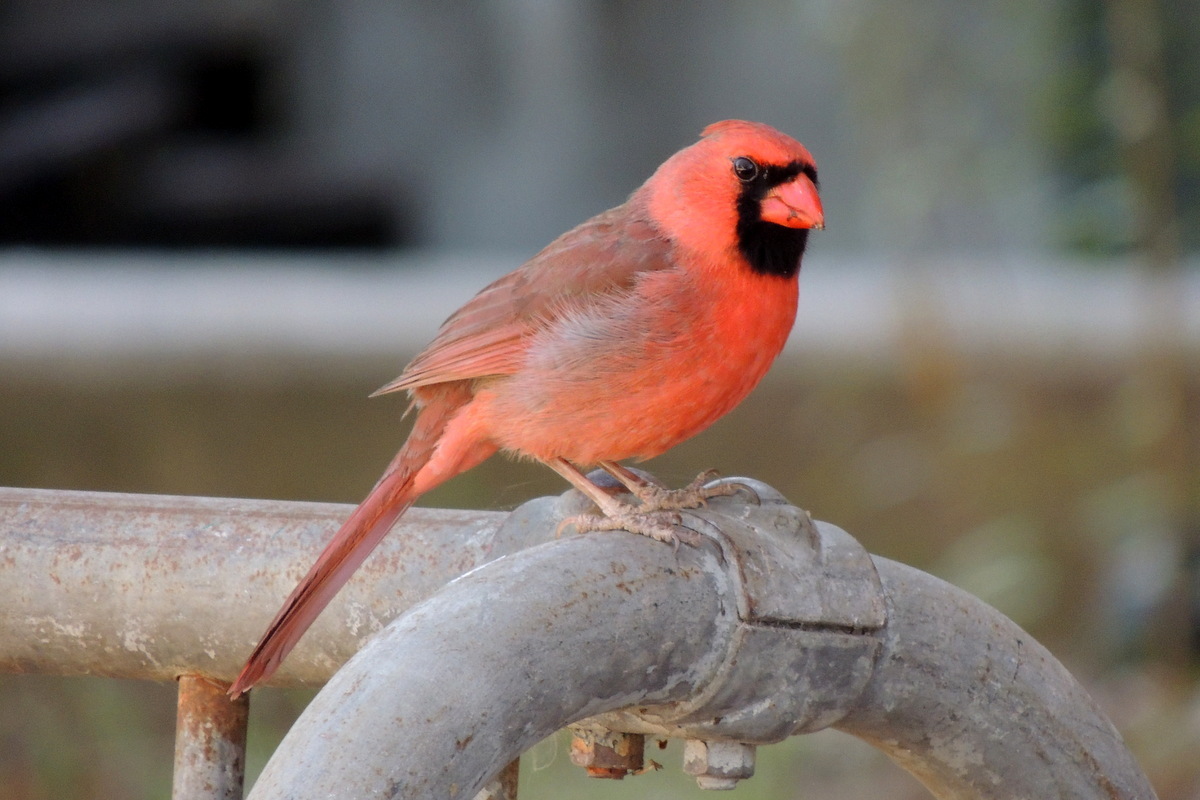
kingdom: Animalia
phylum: Chordata
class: Aves
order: Passeriformes
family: Cardinalidae
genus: Cardinalis
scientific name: Cardinalis cardinalis
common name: Northern cardinal
